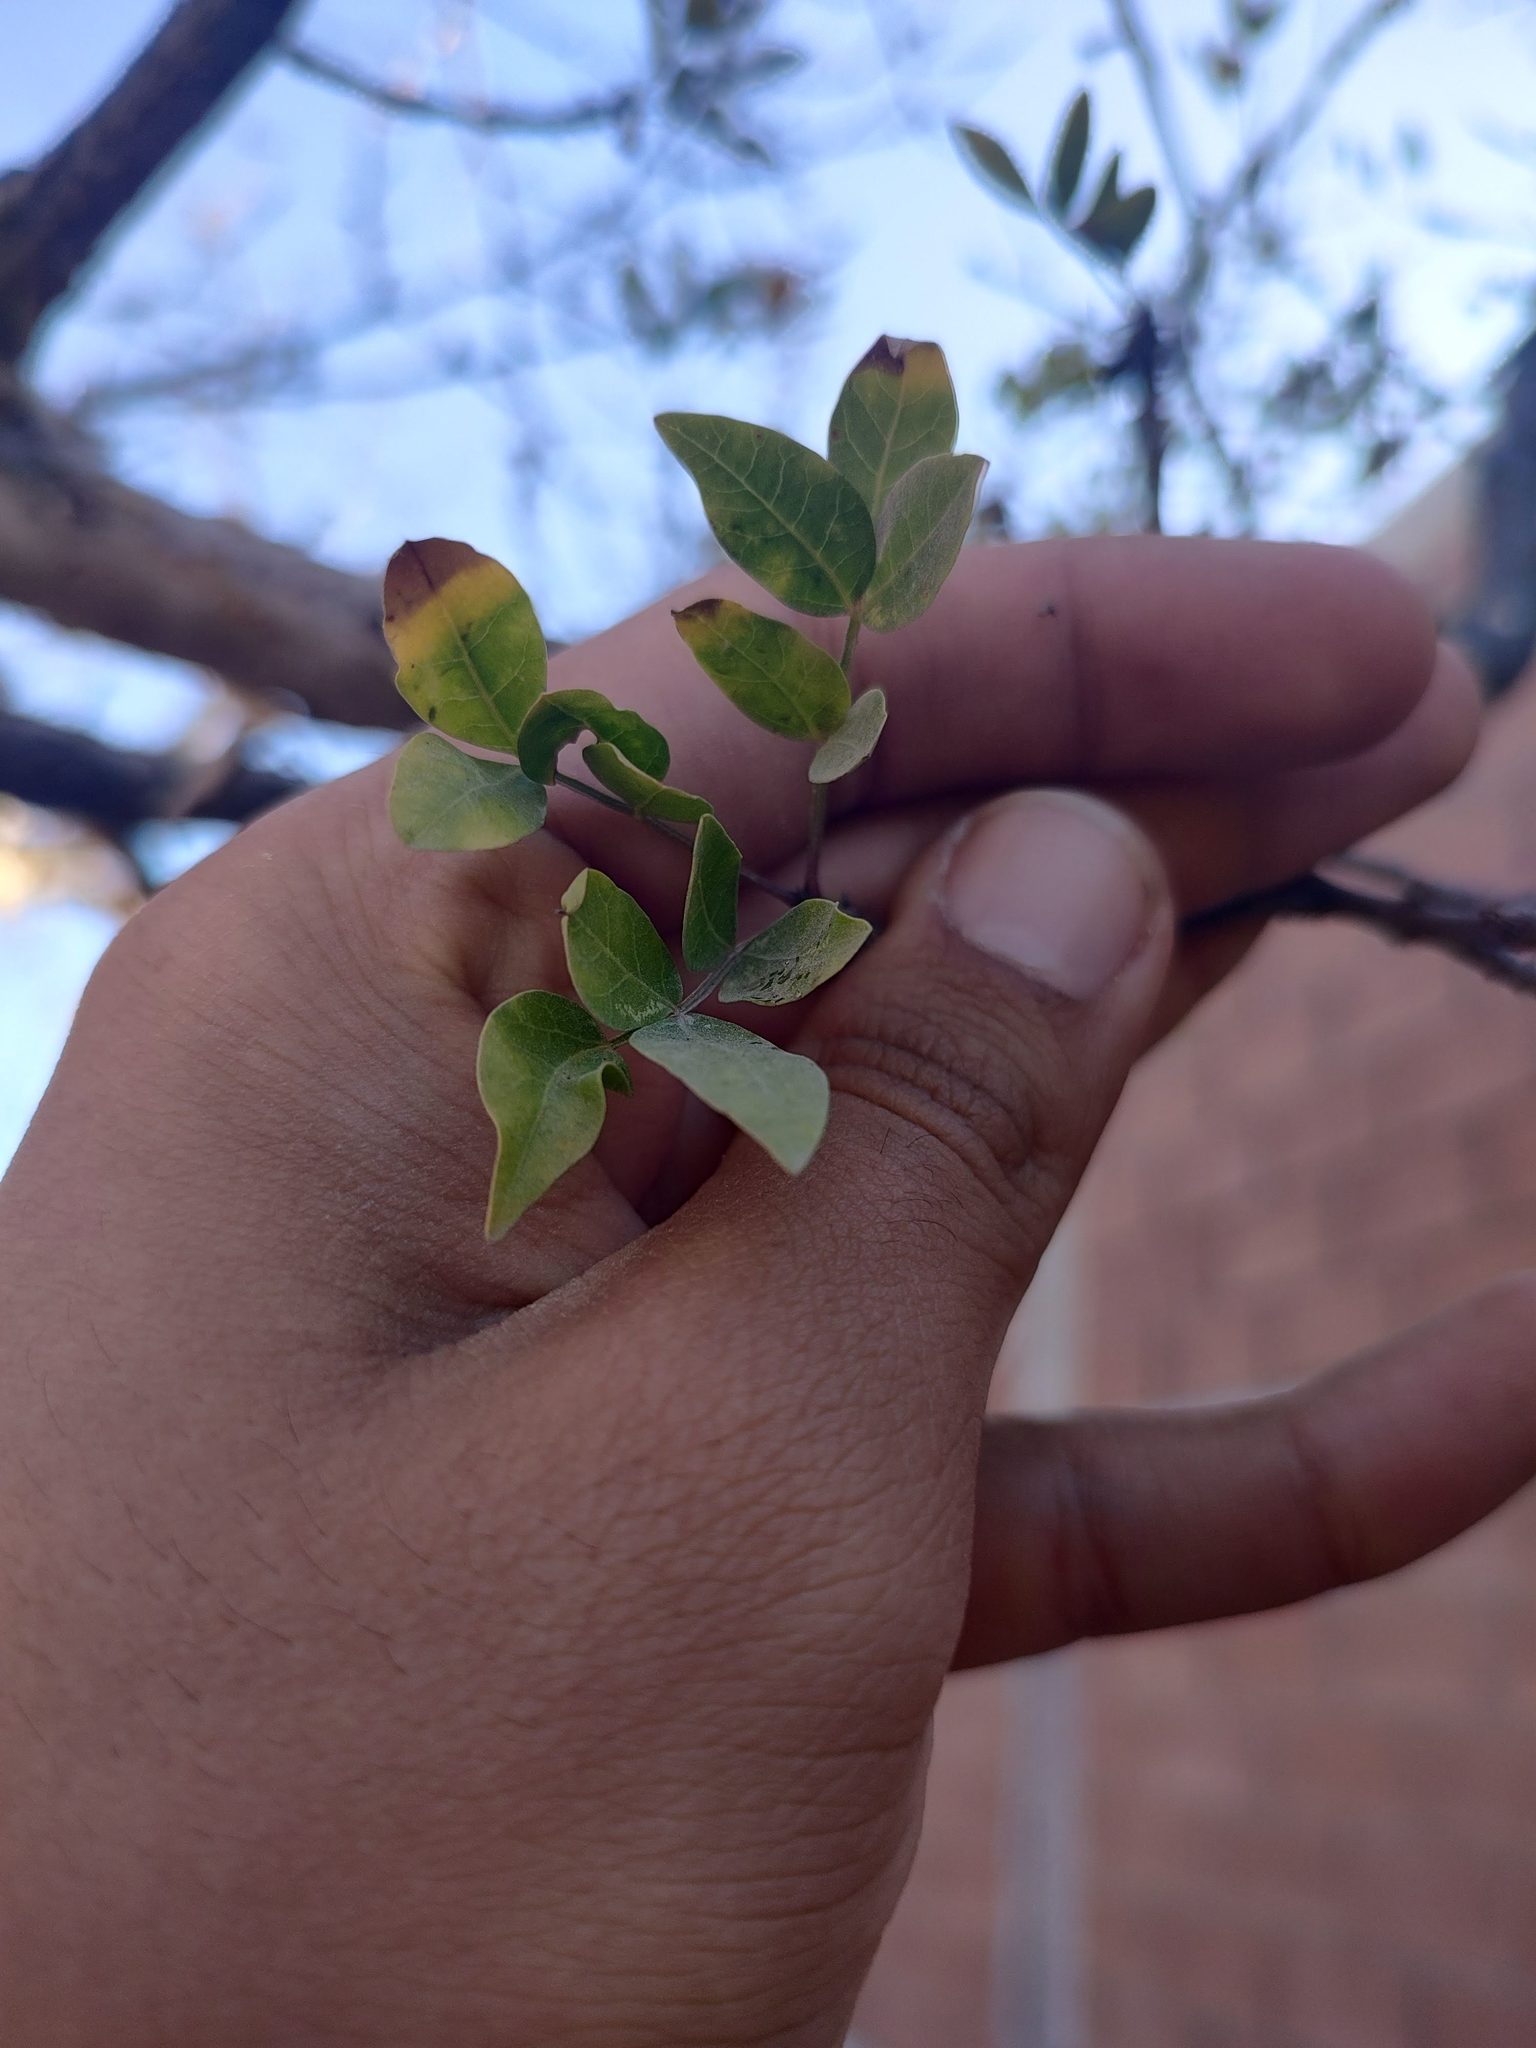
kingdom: Plantae
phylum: Tracheophyta
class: Magnoliopsida
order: Sapindales
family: Burseraceae
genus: Bursera
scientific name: Bursera fagaroides
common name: Elephant tree
